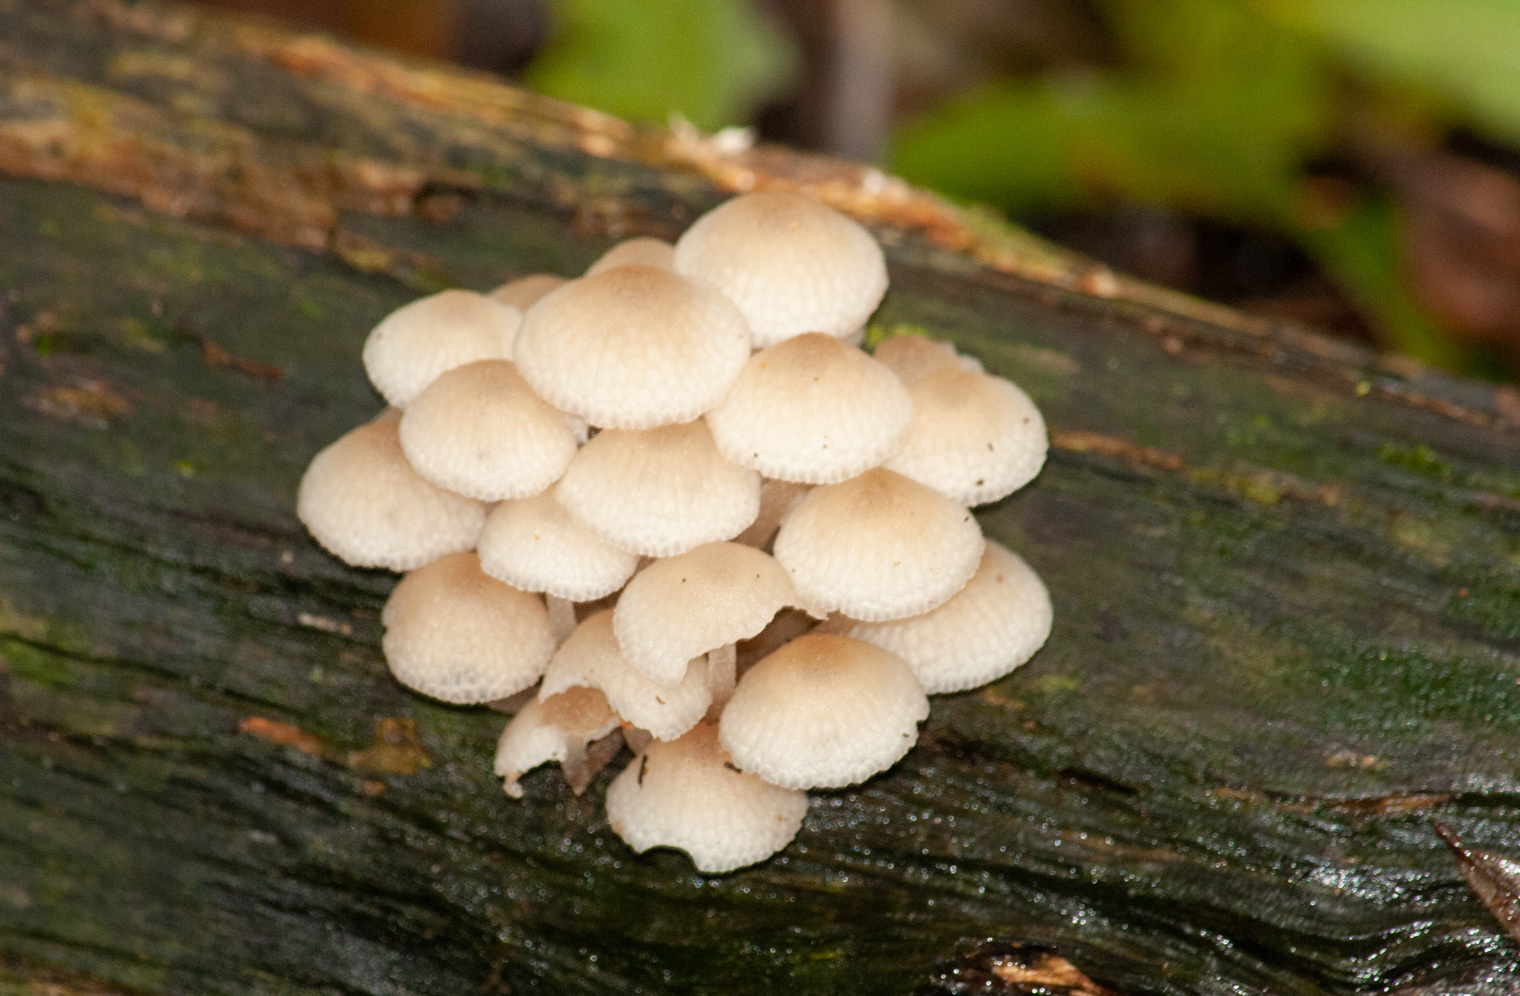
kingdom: Fungi
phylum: Basidiomycota
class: Agaricomycetes
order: Agaricales
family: Mycenaceae
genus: Filoboletus
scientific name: Filoboletus manipularis
